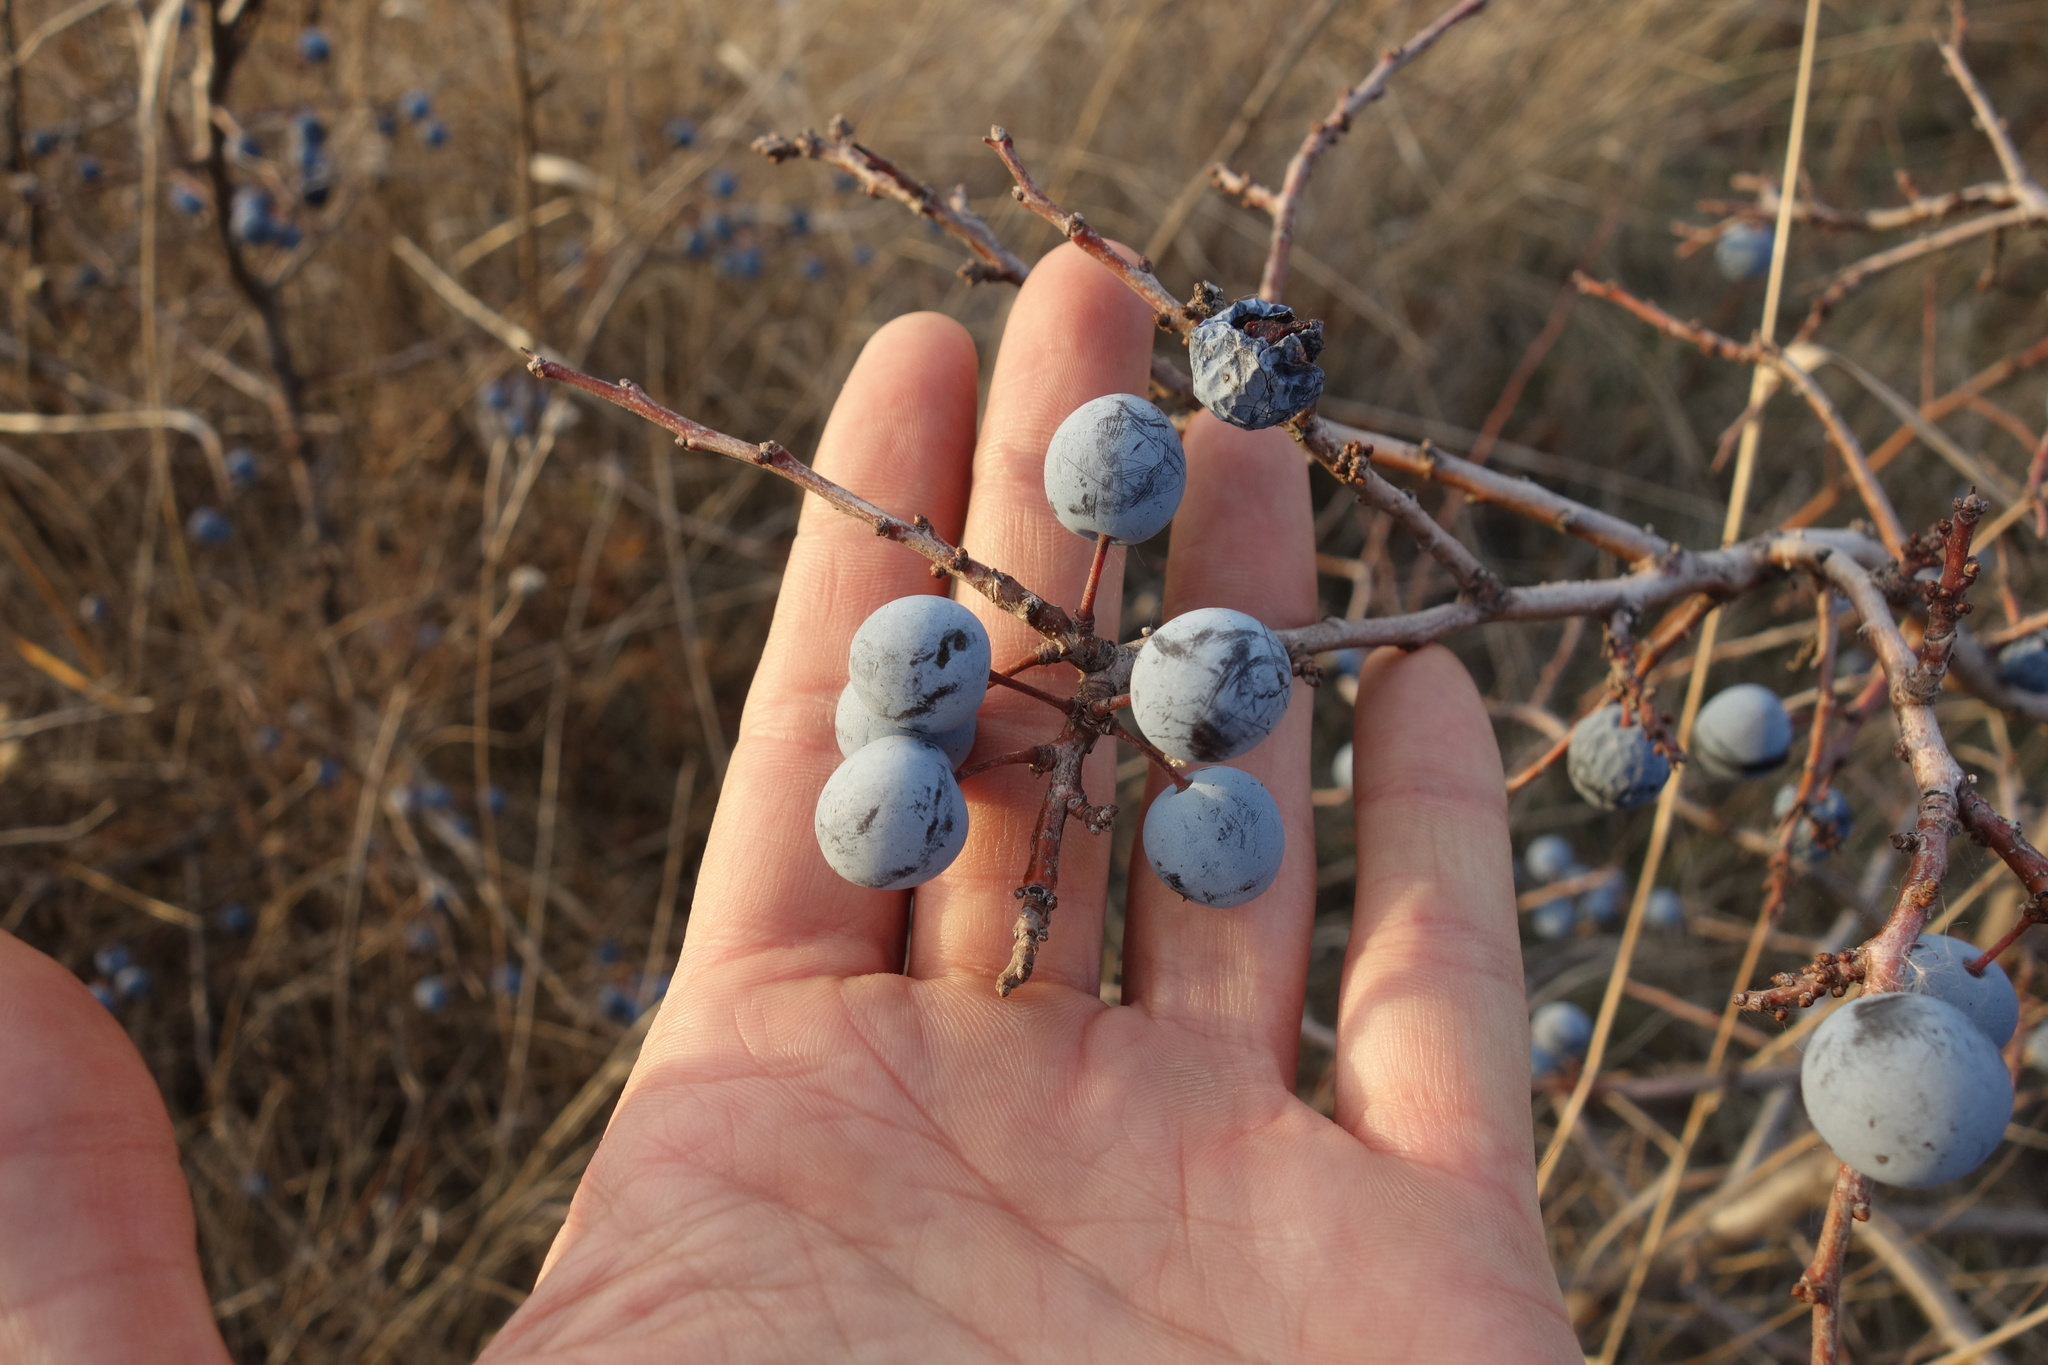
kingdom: Plantae
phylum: Tracheophyta
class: Magnoliopsida
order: Rosales
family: Rosaceae
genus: Prunus
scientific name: Prunus spinosa
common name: Blackthorn
